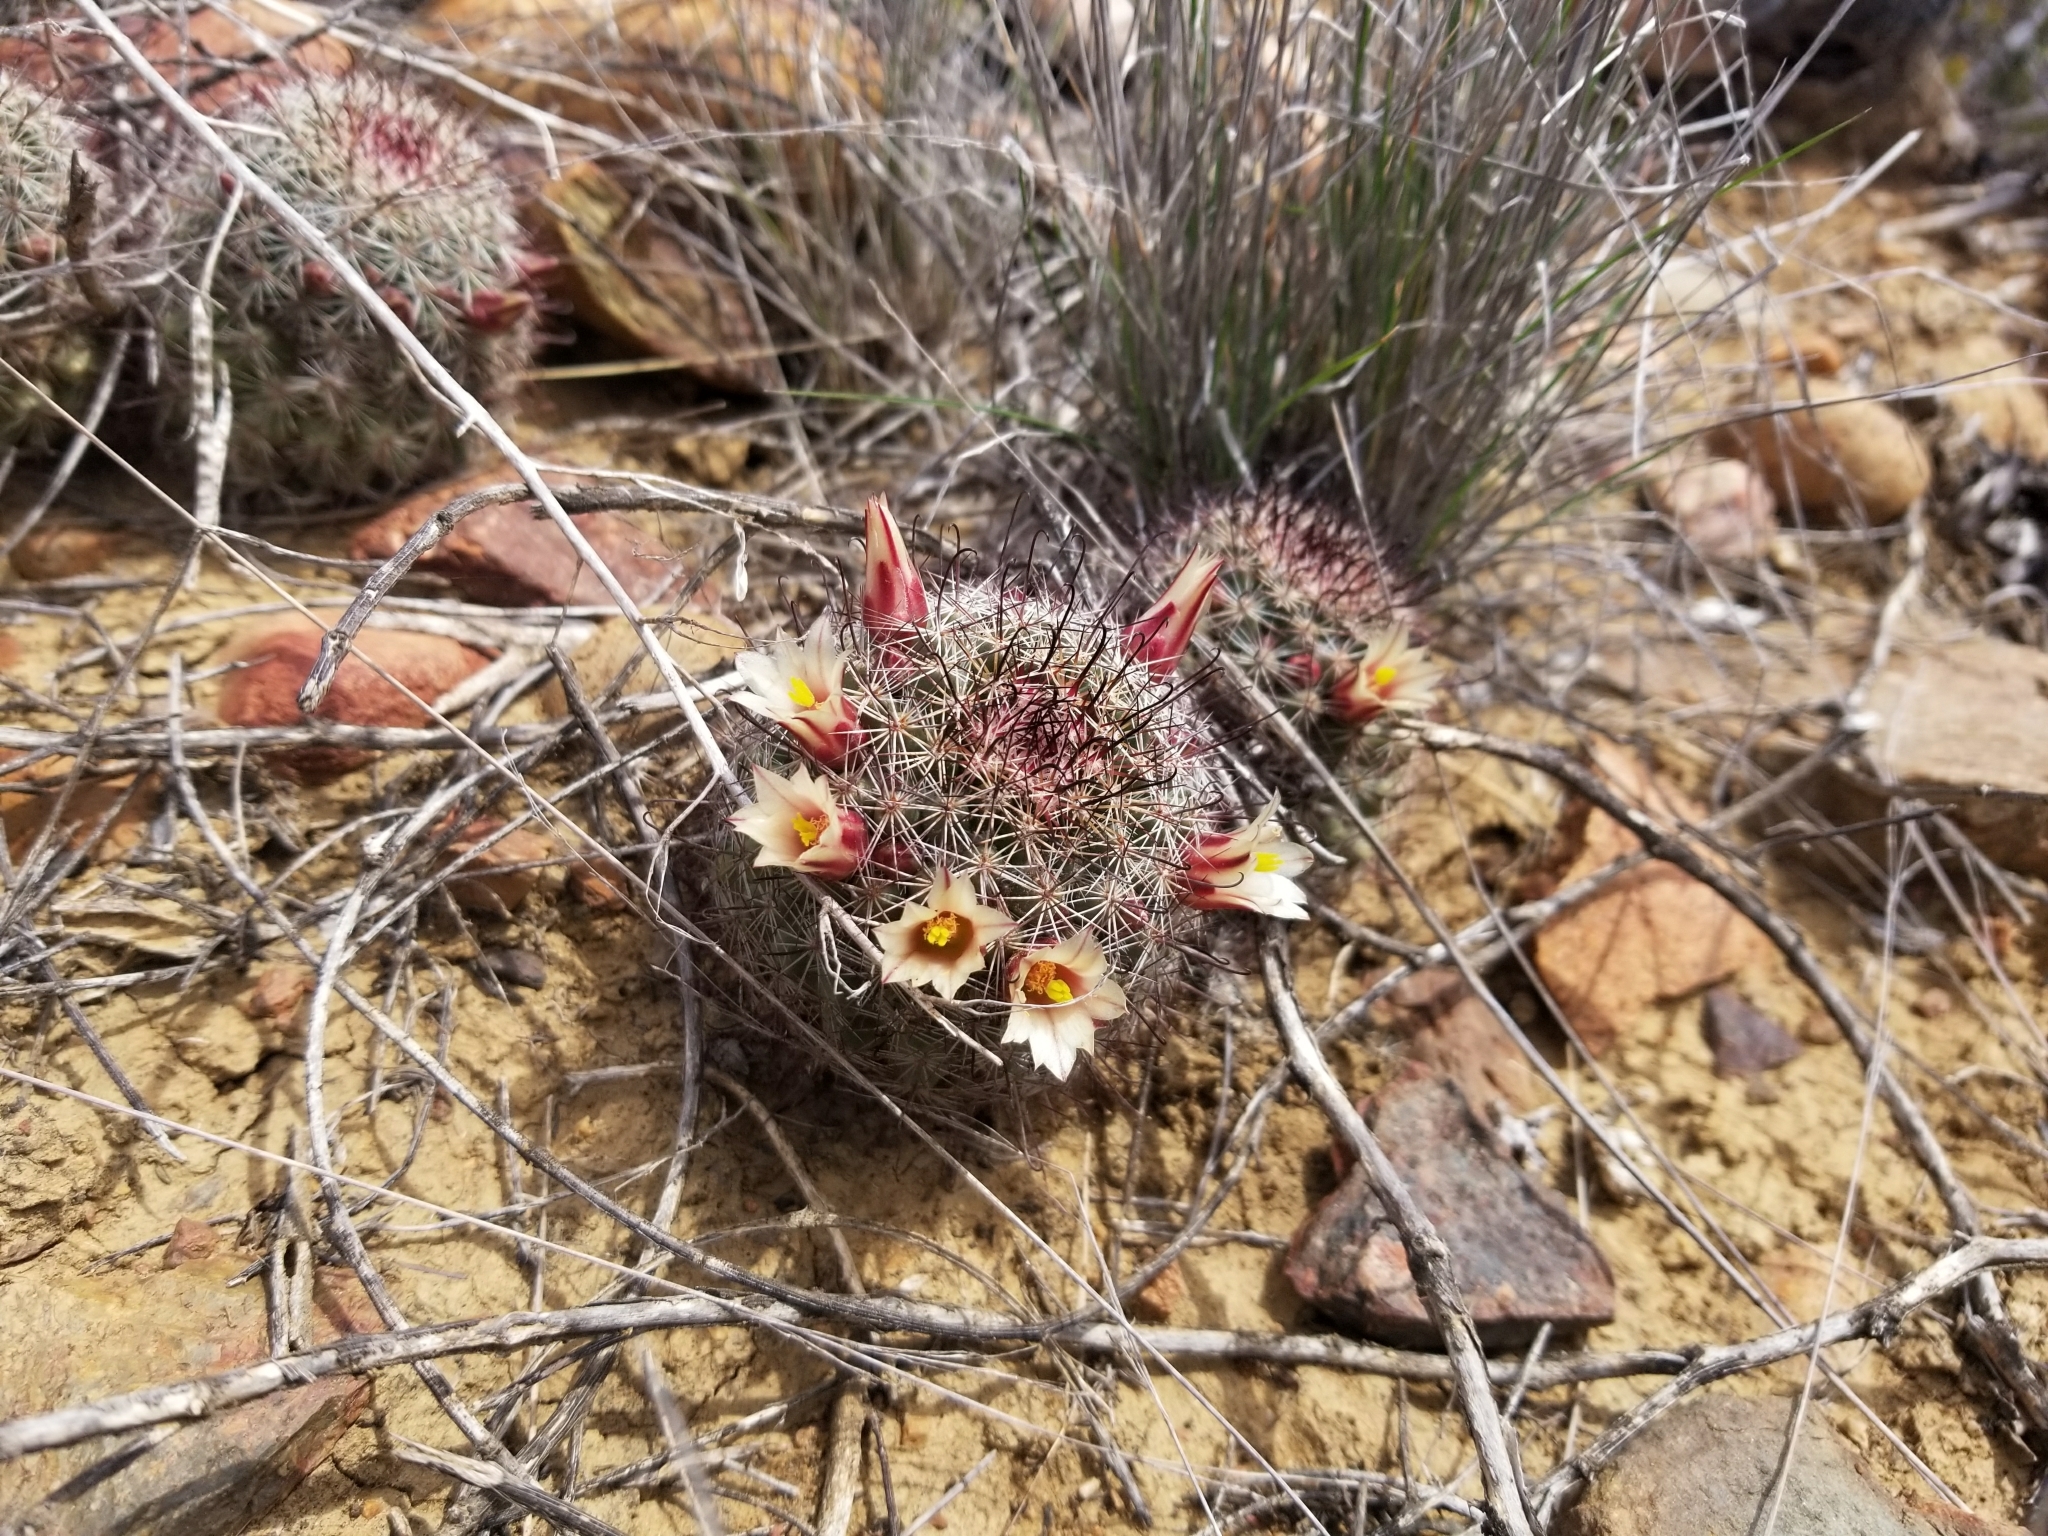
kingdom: Plantae
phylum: Tracheophyta
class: Magnoliopsida
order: Caryophyllales
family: Cactaceae
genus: Cochemiea
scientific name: Cochemiea dioica
